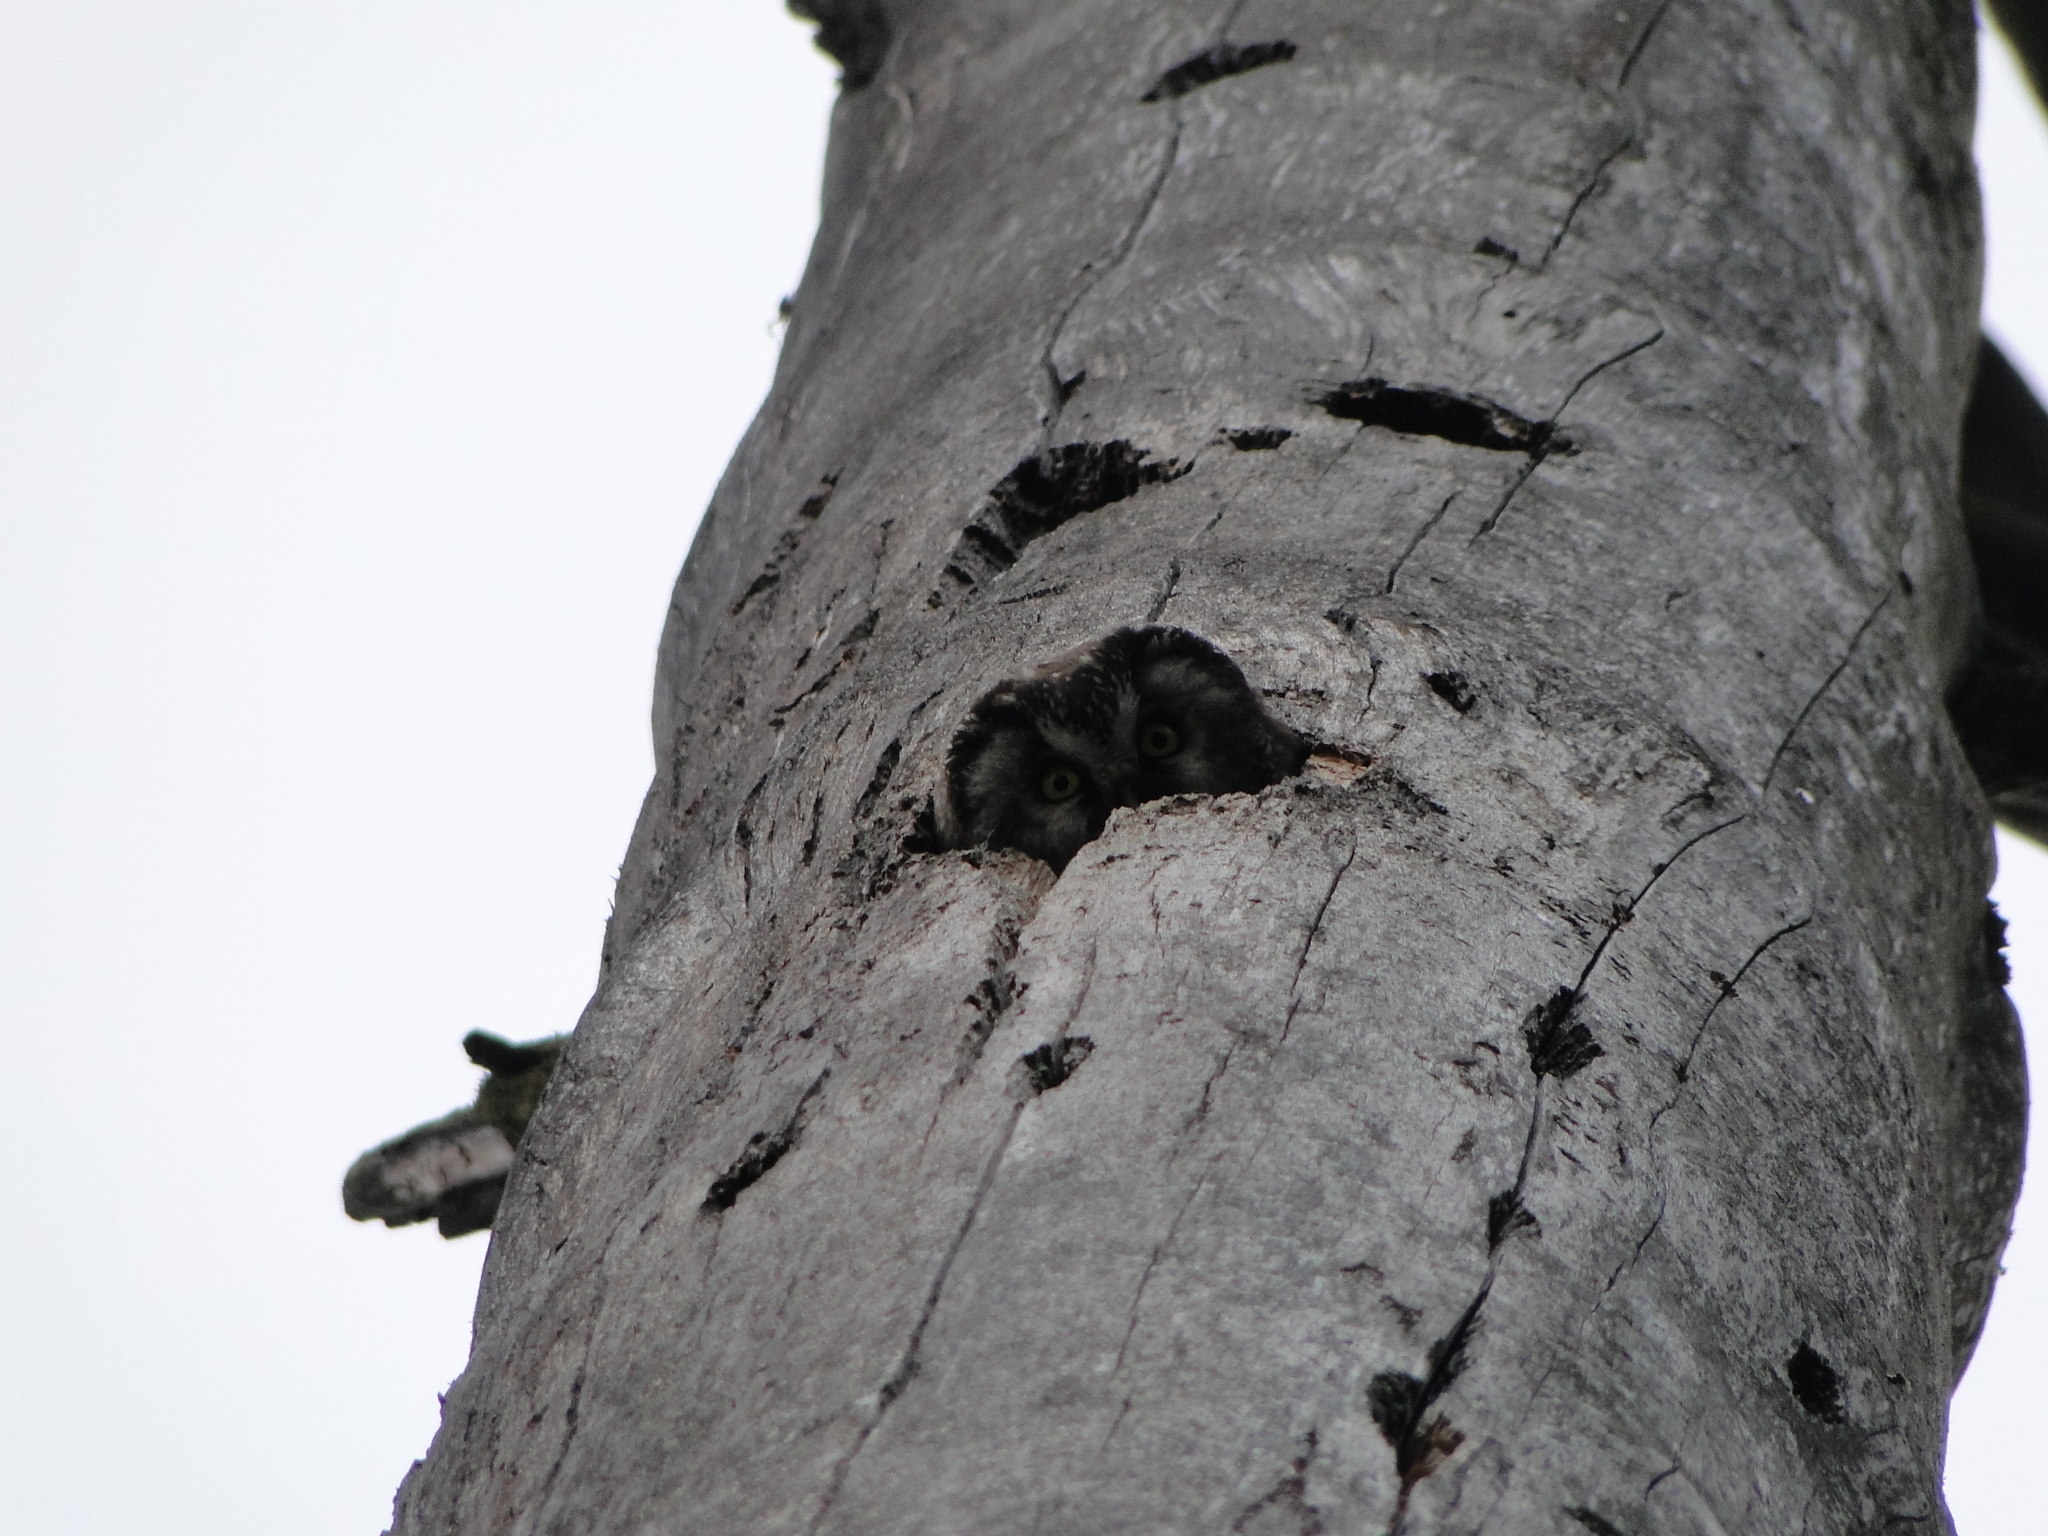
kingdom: Animalia
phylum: Chordata
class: Aves
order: Strigiformes
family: Strigidae
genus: Aegolius
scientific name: Aegolius funereus
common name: Boreal owl
